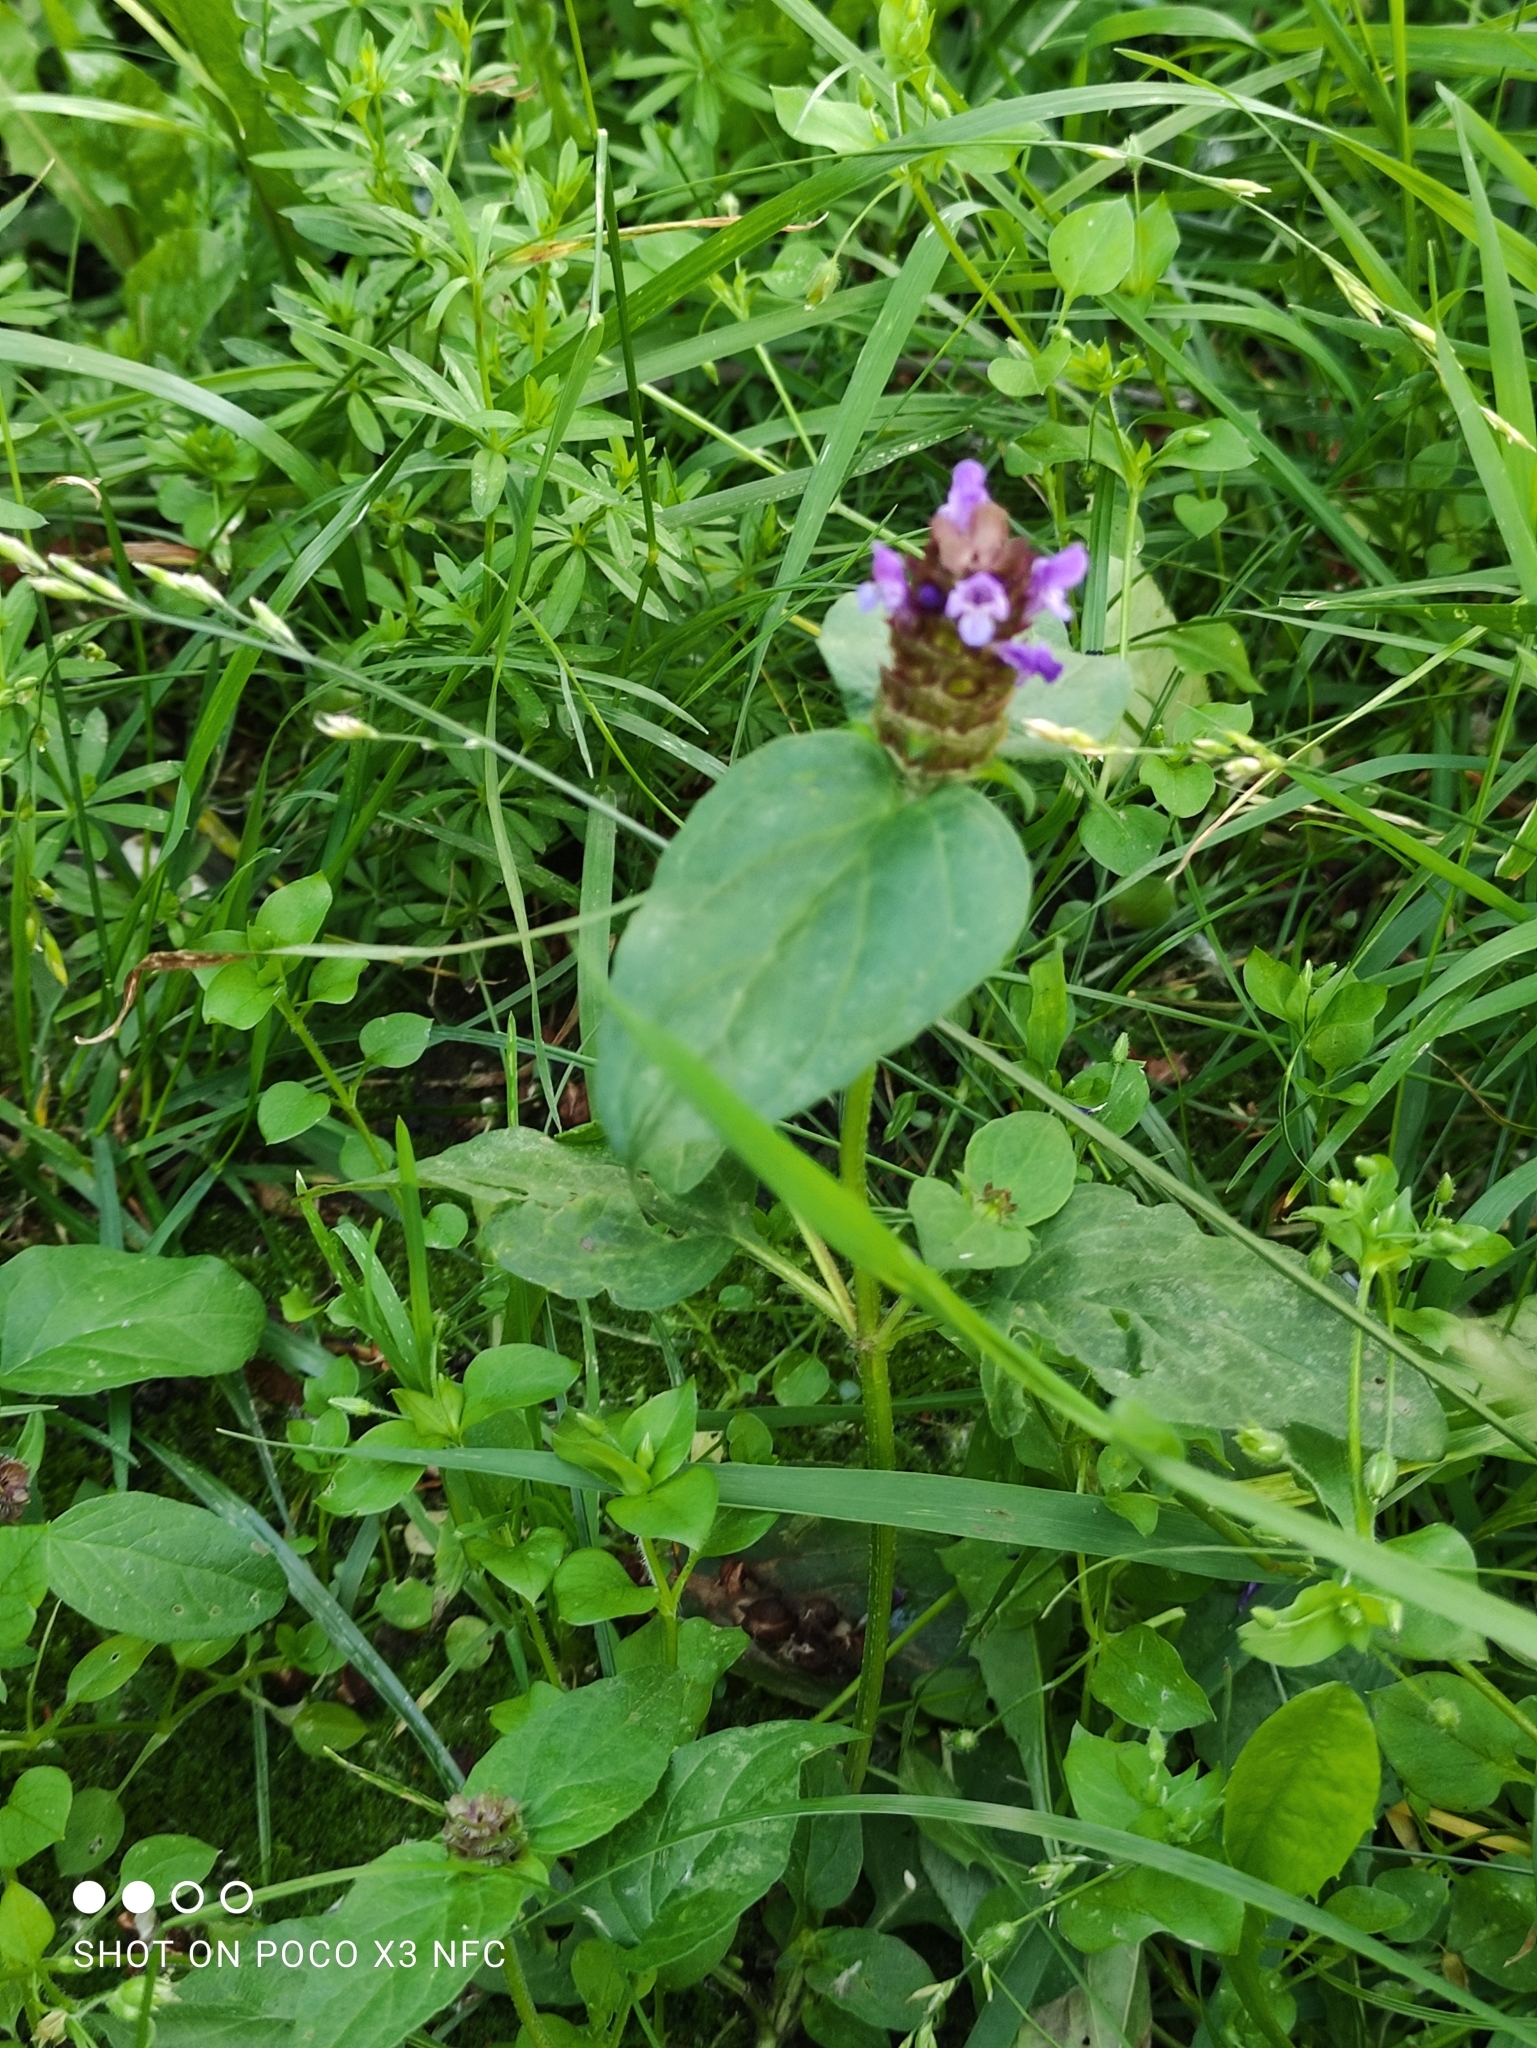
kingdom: Plantae
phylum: Tracheophyta
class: Magnoliopsida
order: Lamiales
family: Lamiaceae
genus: Prunella
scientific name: Prunella vulgaris
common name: Heal-all
